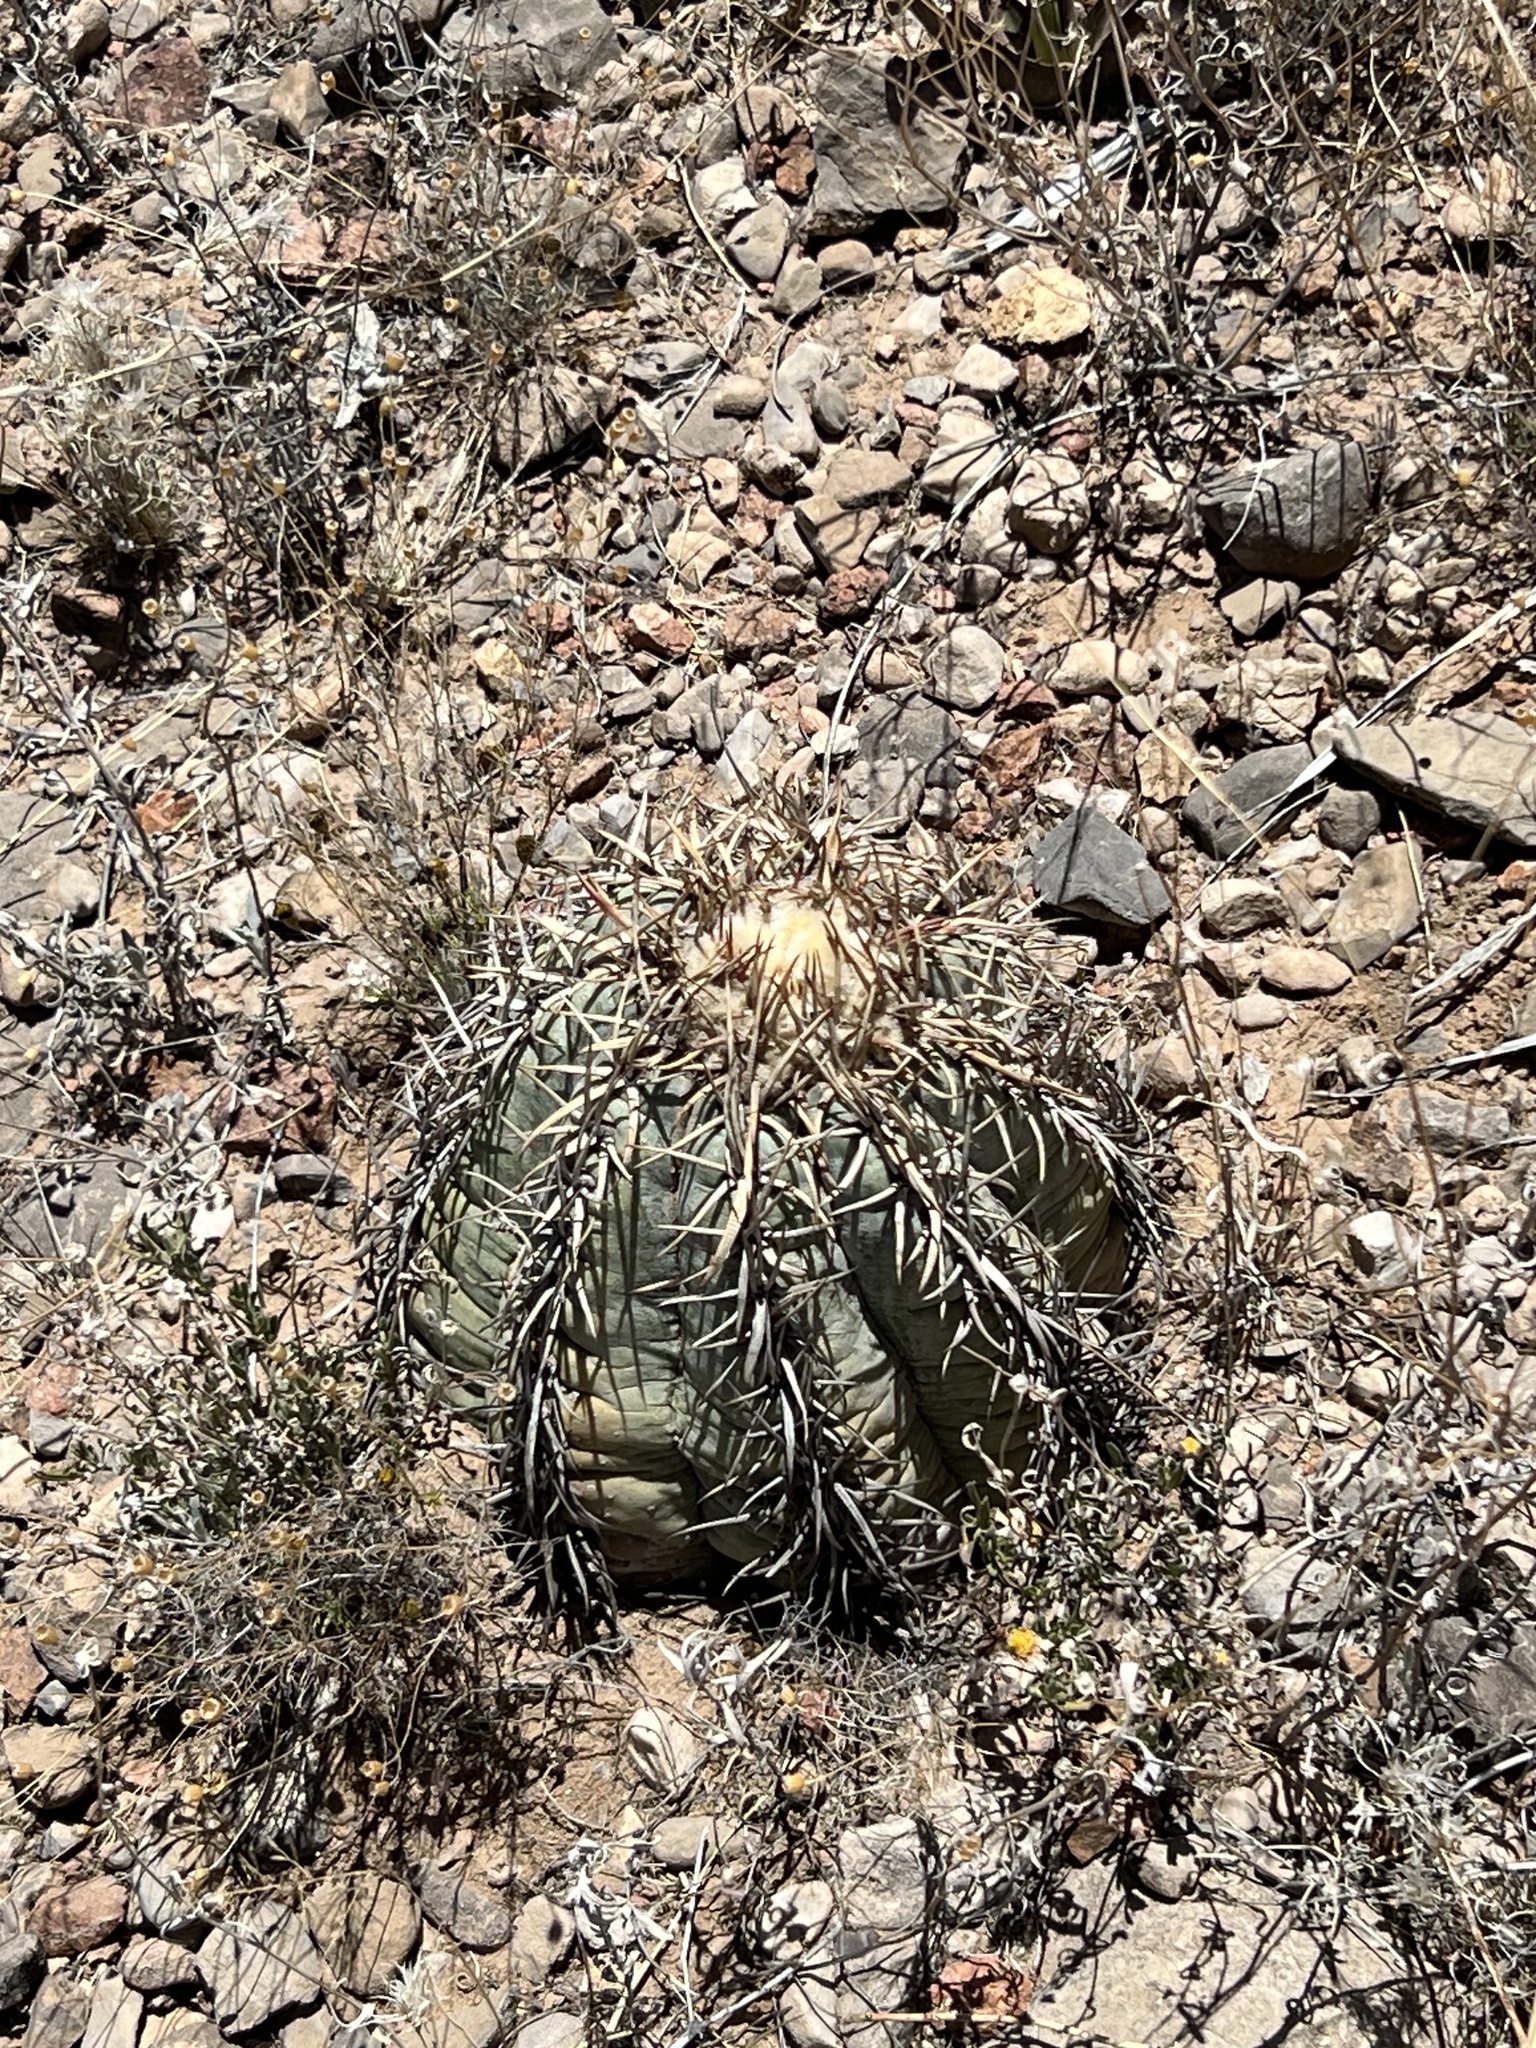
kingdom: Plantae
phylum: Tracheophyta
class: Magnoliopsida
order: Caryophyllales
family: Cactaceae
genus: Echinocactus
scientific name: Echinocactus horizonthalonius
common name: Devilshead
